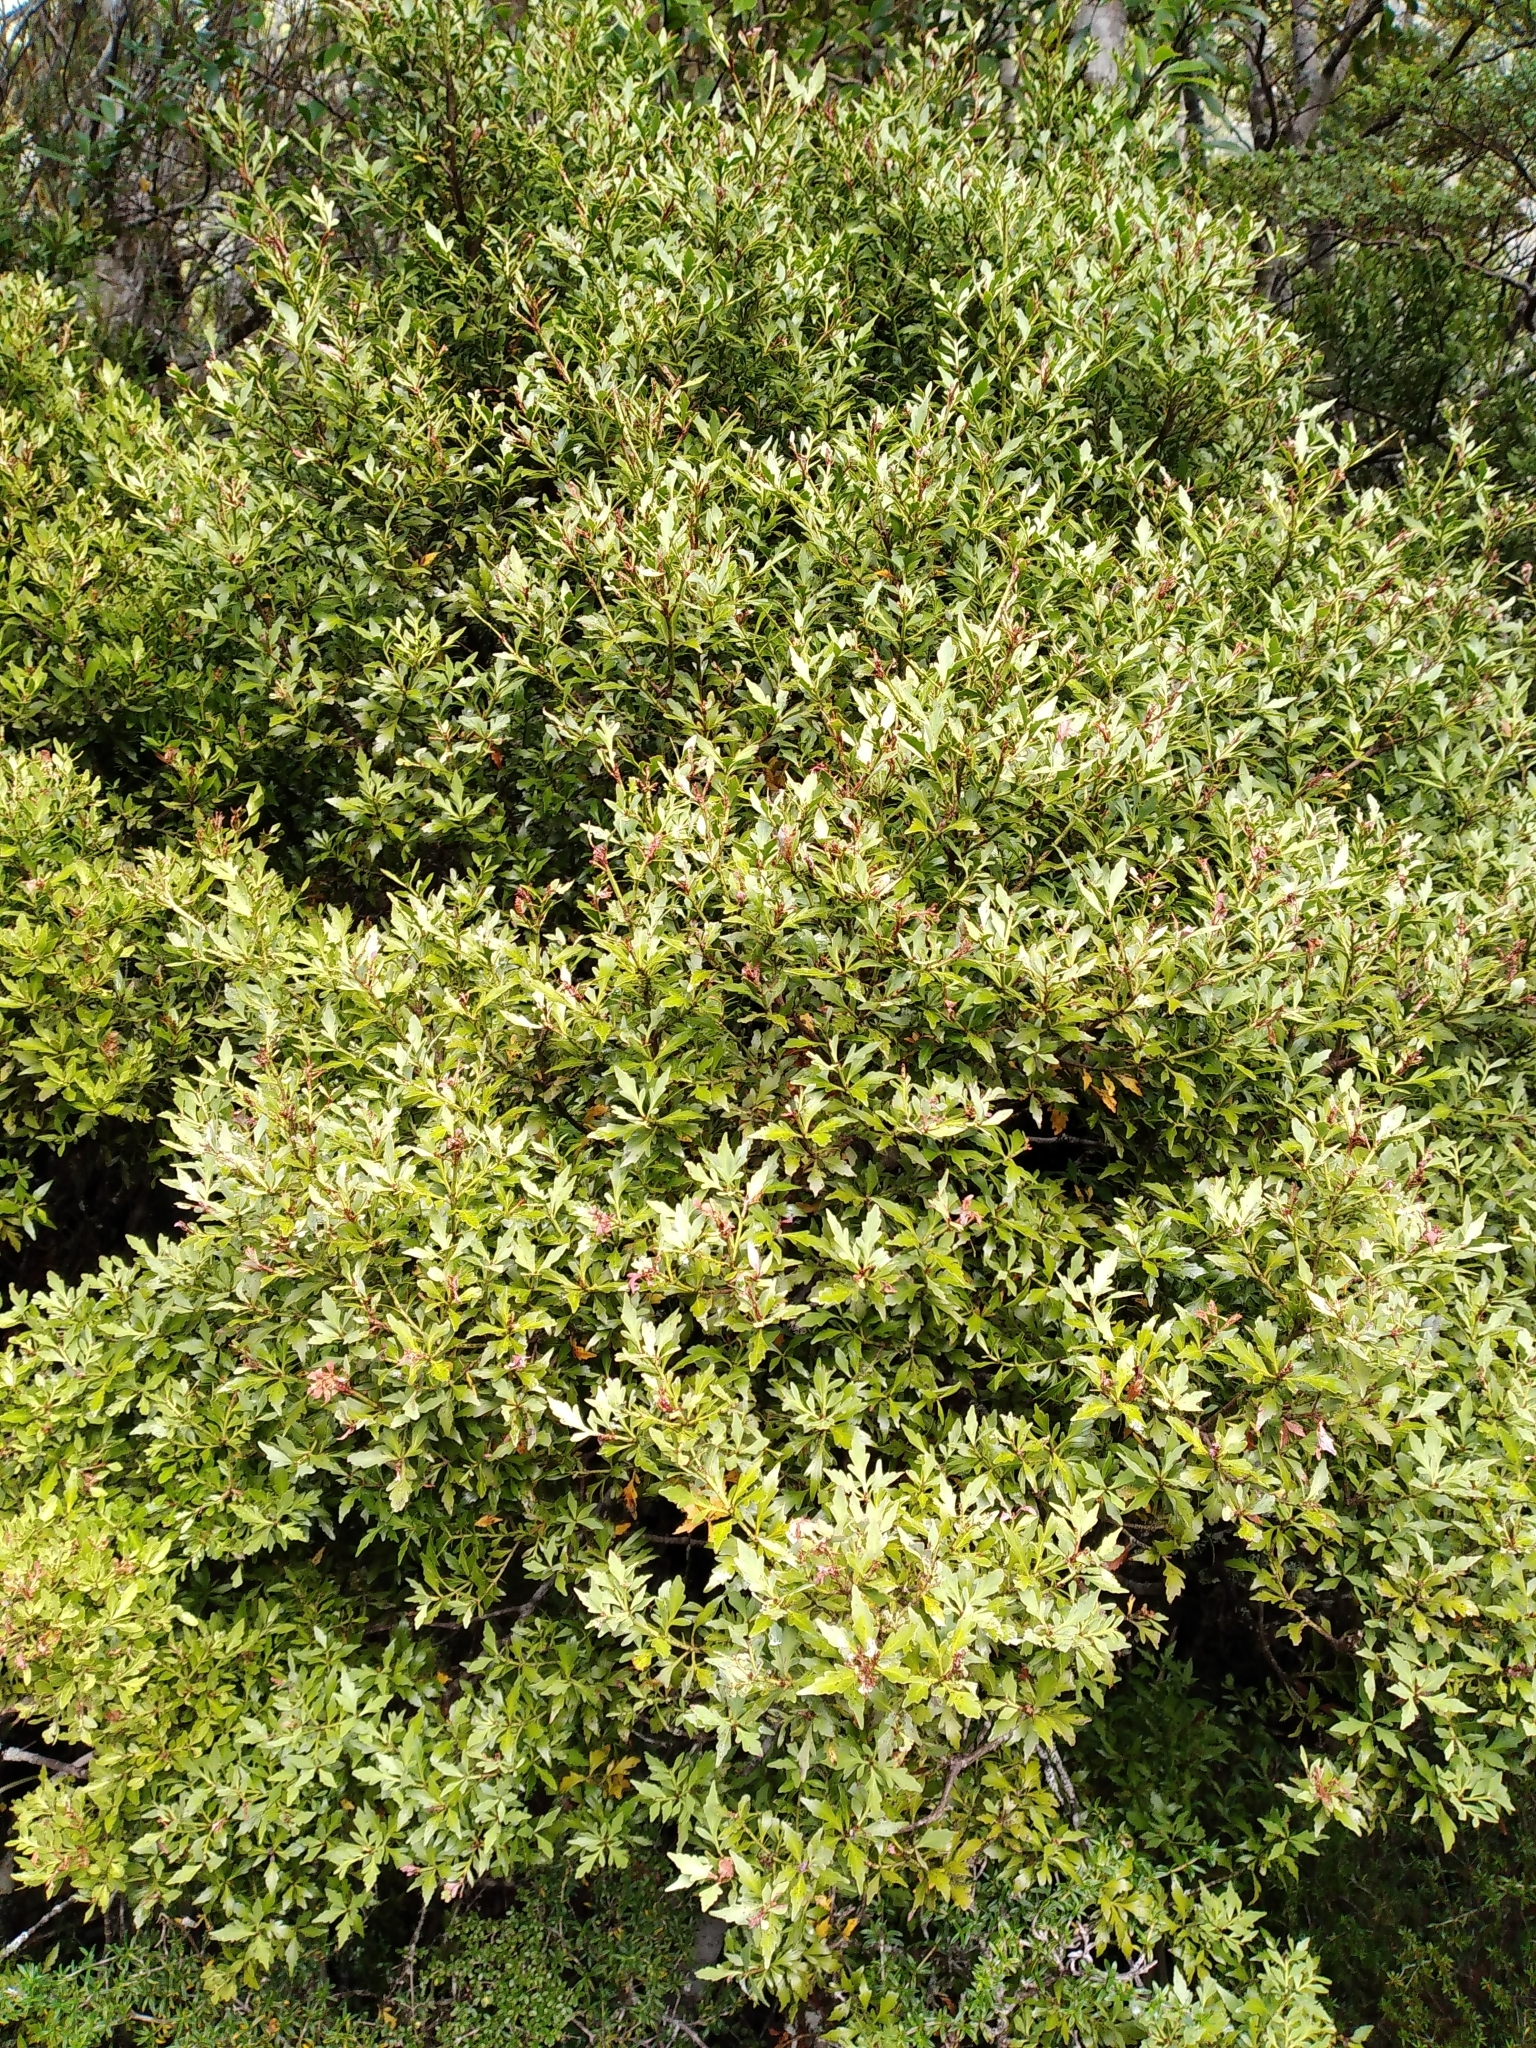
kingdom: Plantae
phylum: Tracheophyta
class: Pinopsida
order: Pinales
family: Phyllocladaceae
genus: Phyllocladus
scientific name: Phyllocladus trichomanoides
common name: Celery pine
